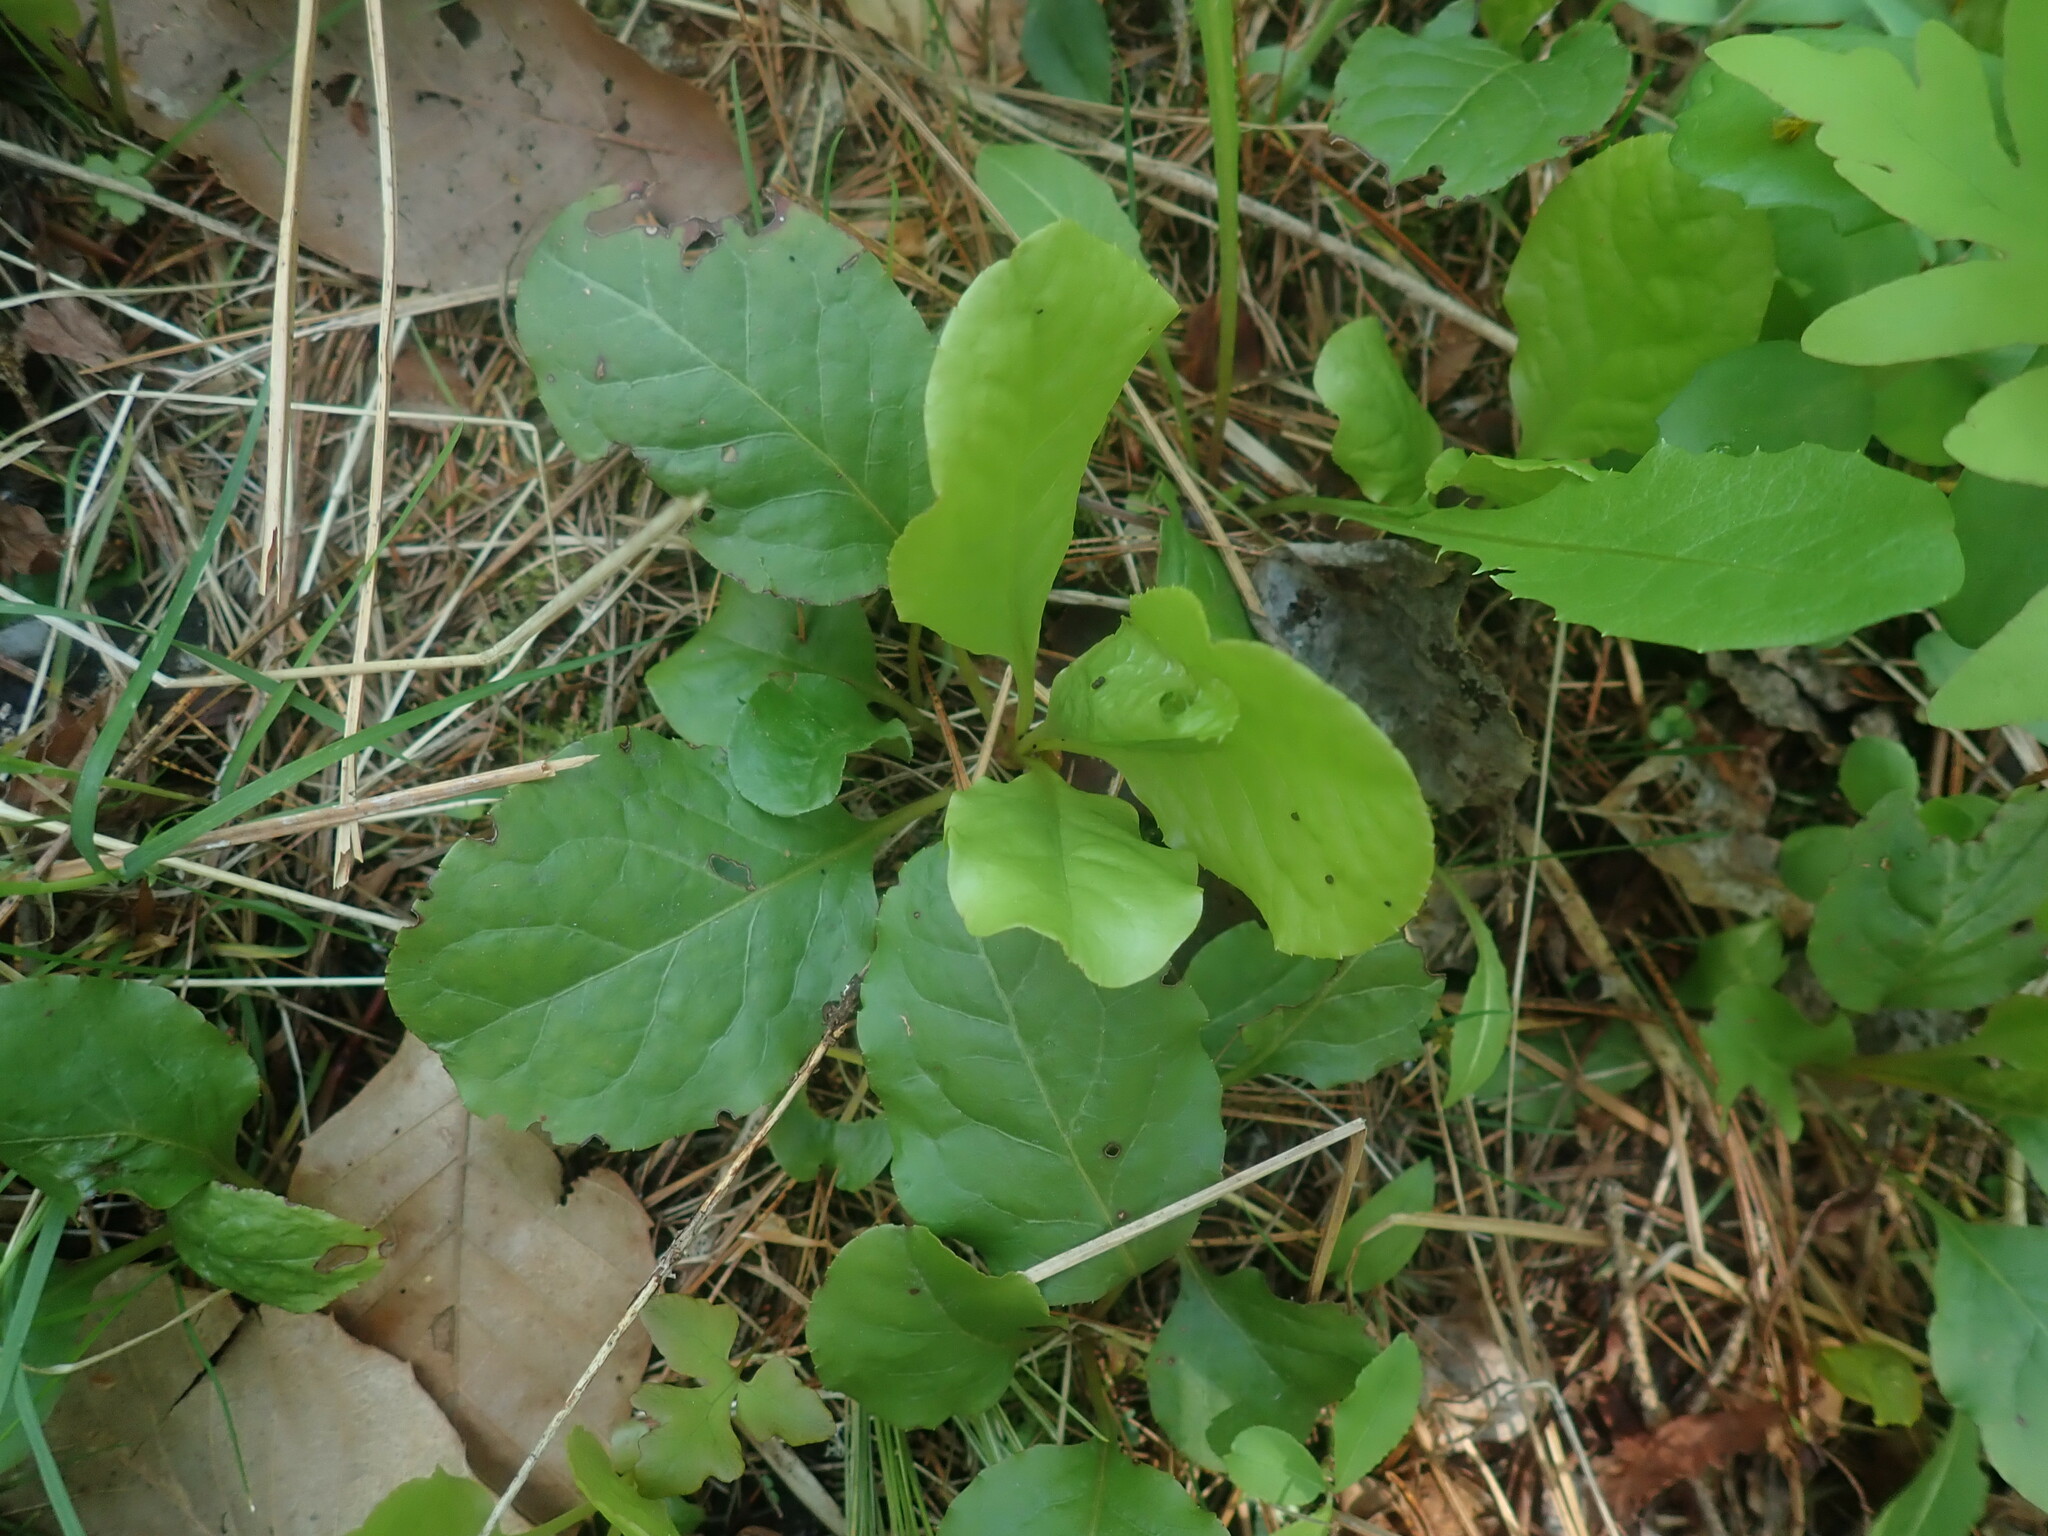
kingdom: Plantae
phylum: Tracheophyta
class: Magnoliopsida
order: Ericales
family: Ericaceae
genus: Pyrola
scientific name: Pyrola elliptica
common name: Shinleaf
